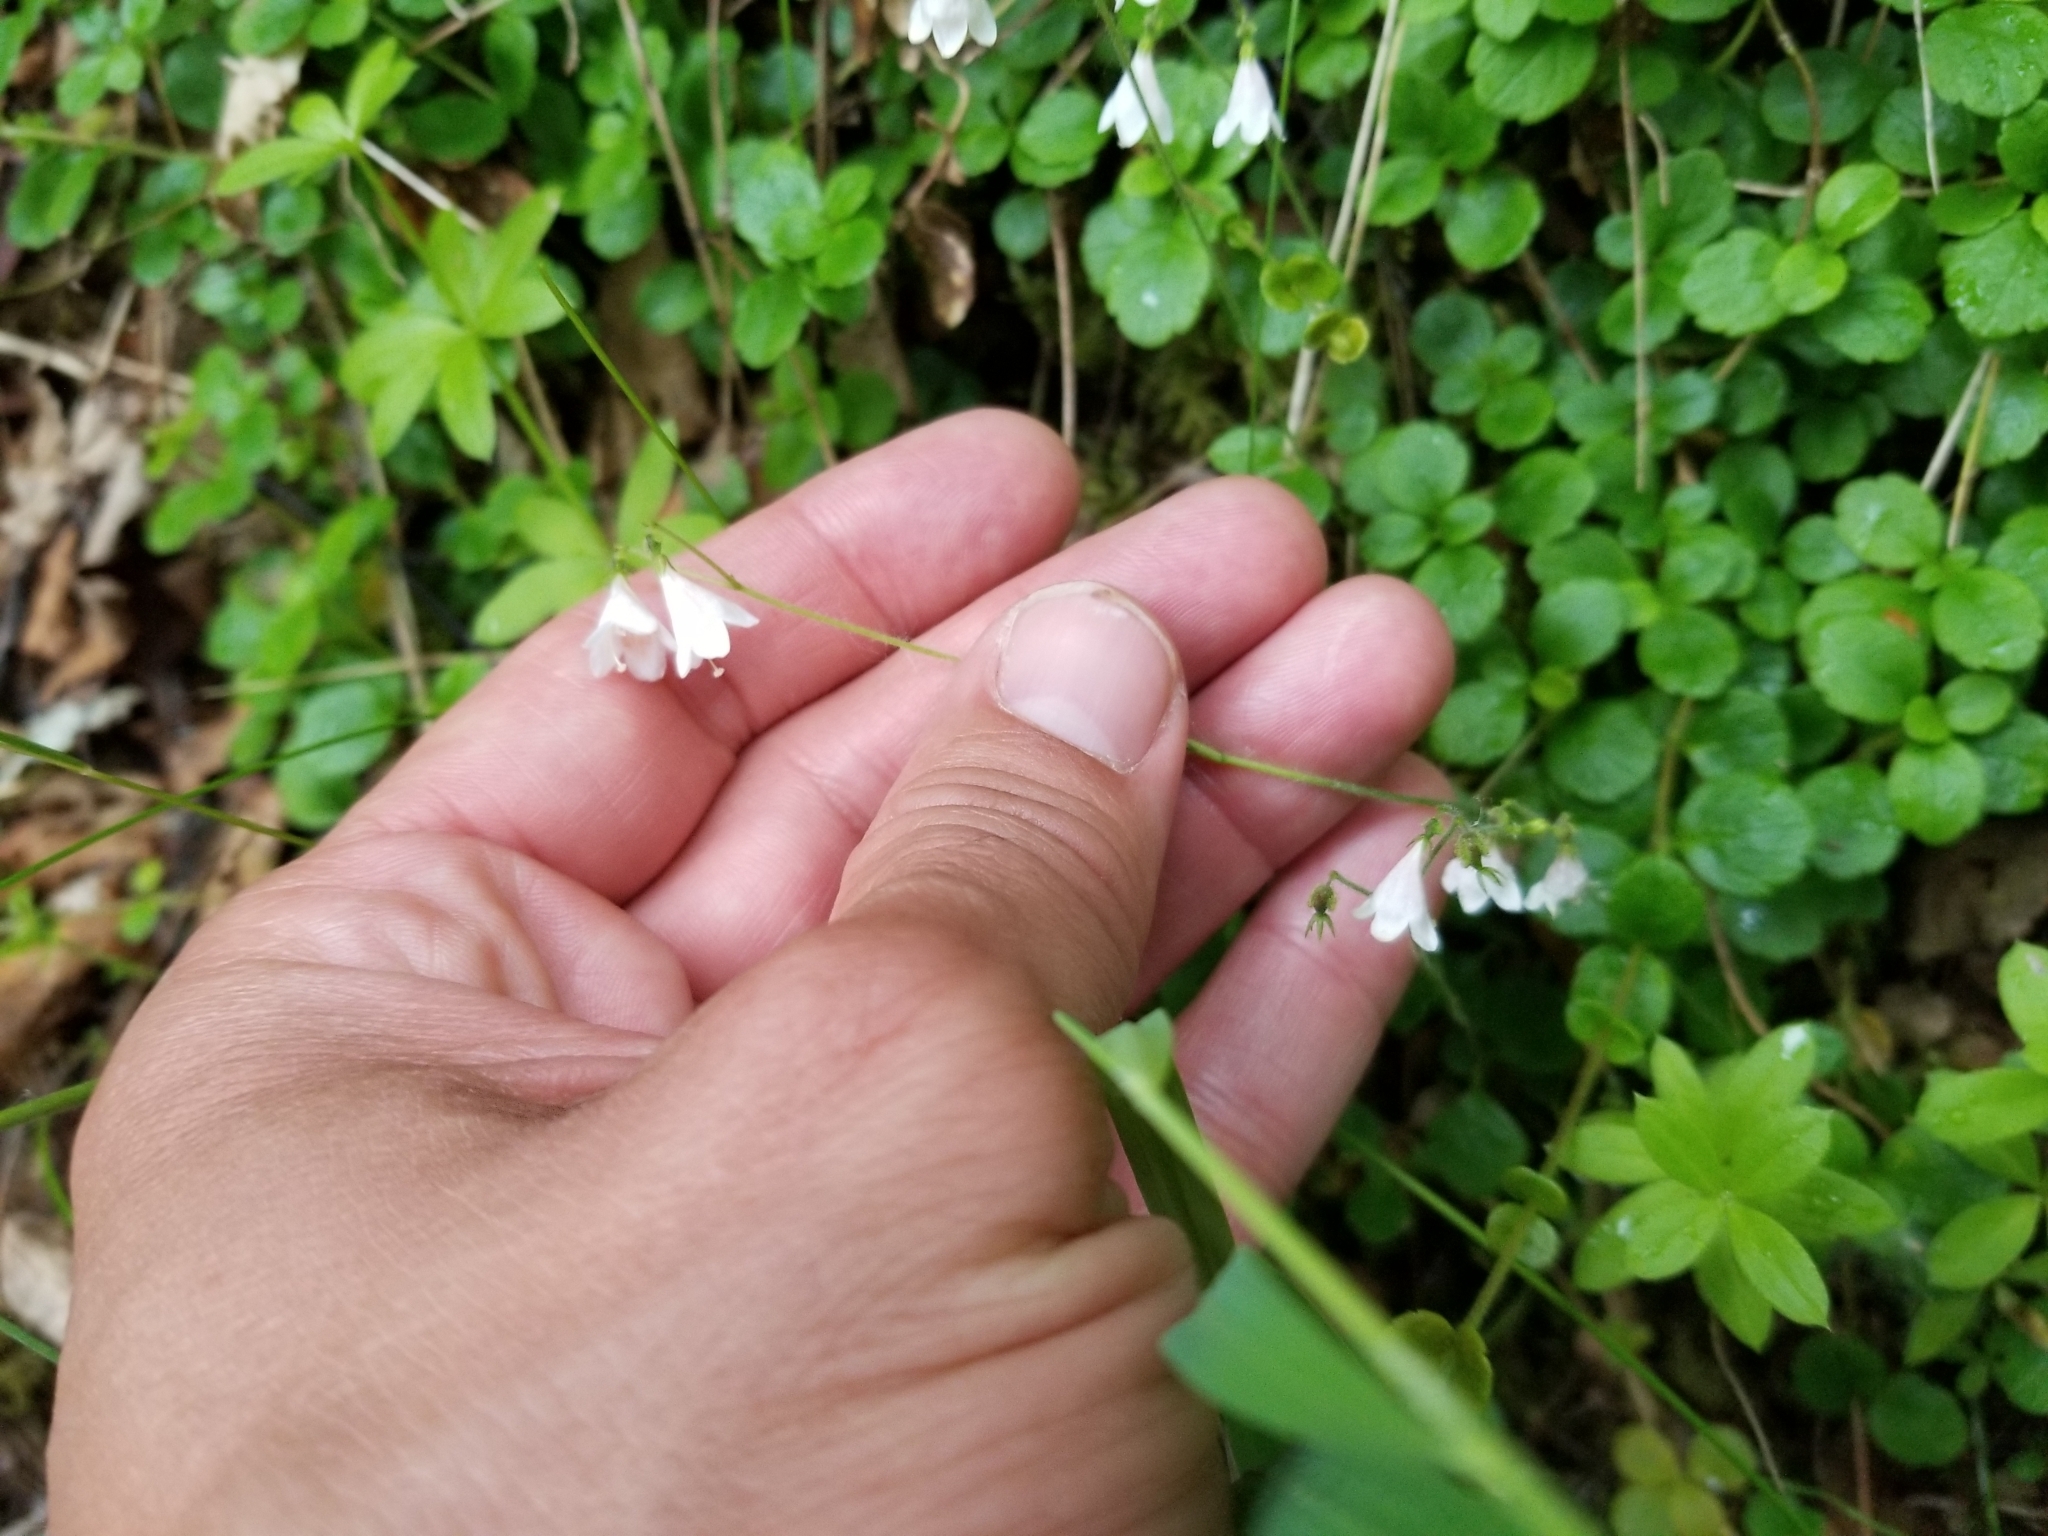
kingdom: Plantae
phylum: Tracheophyta
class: Magnoliopsida
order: Dipsacales
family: Caprifoliaceae
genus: Linnaea
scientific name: Linnaea borealis
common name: Twinflower
